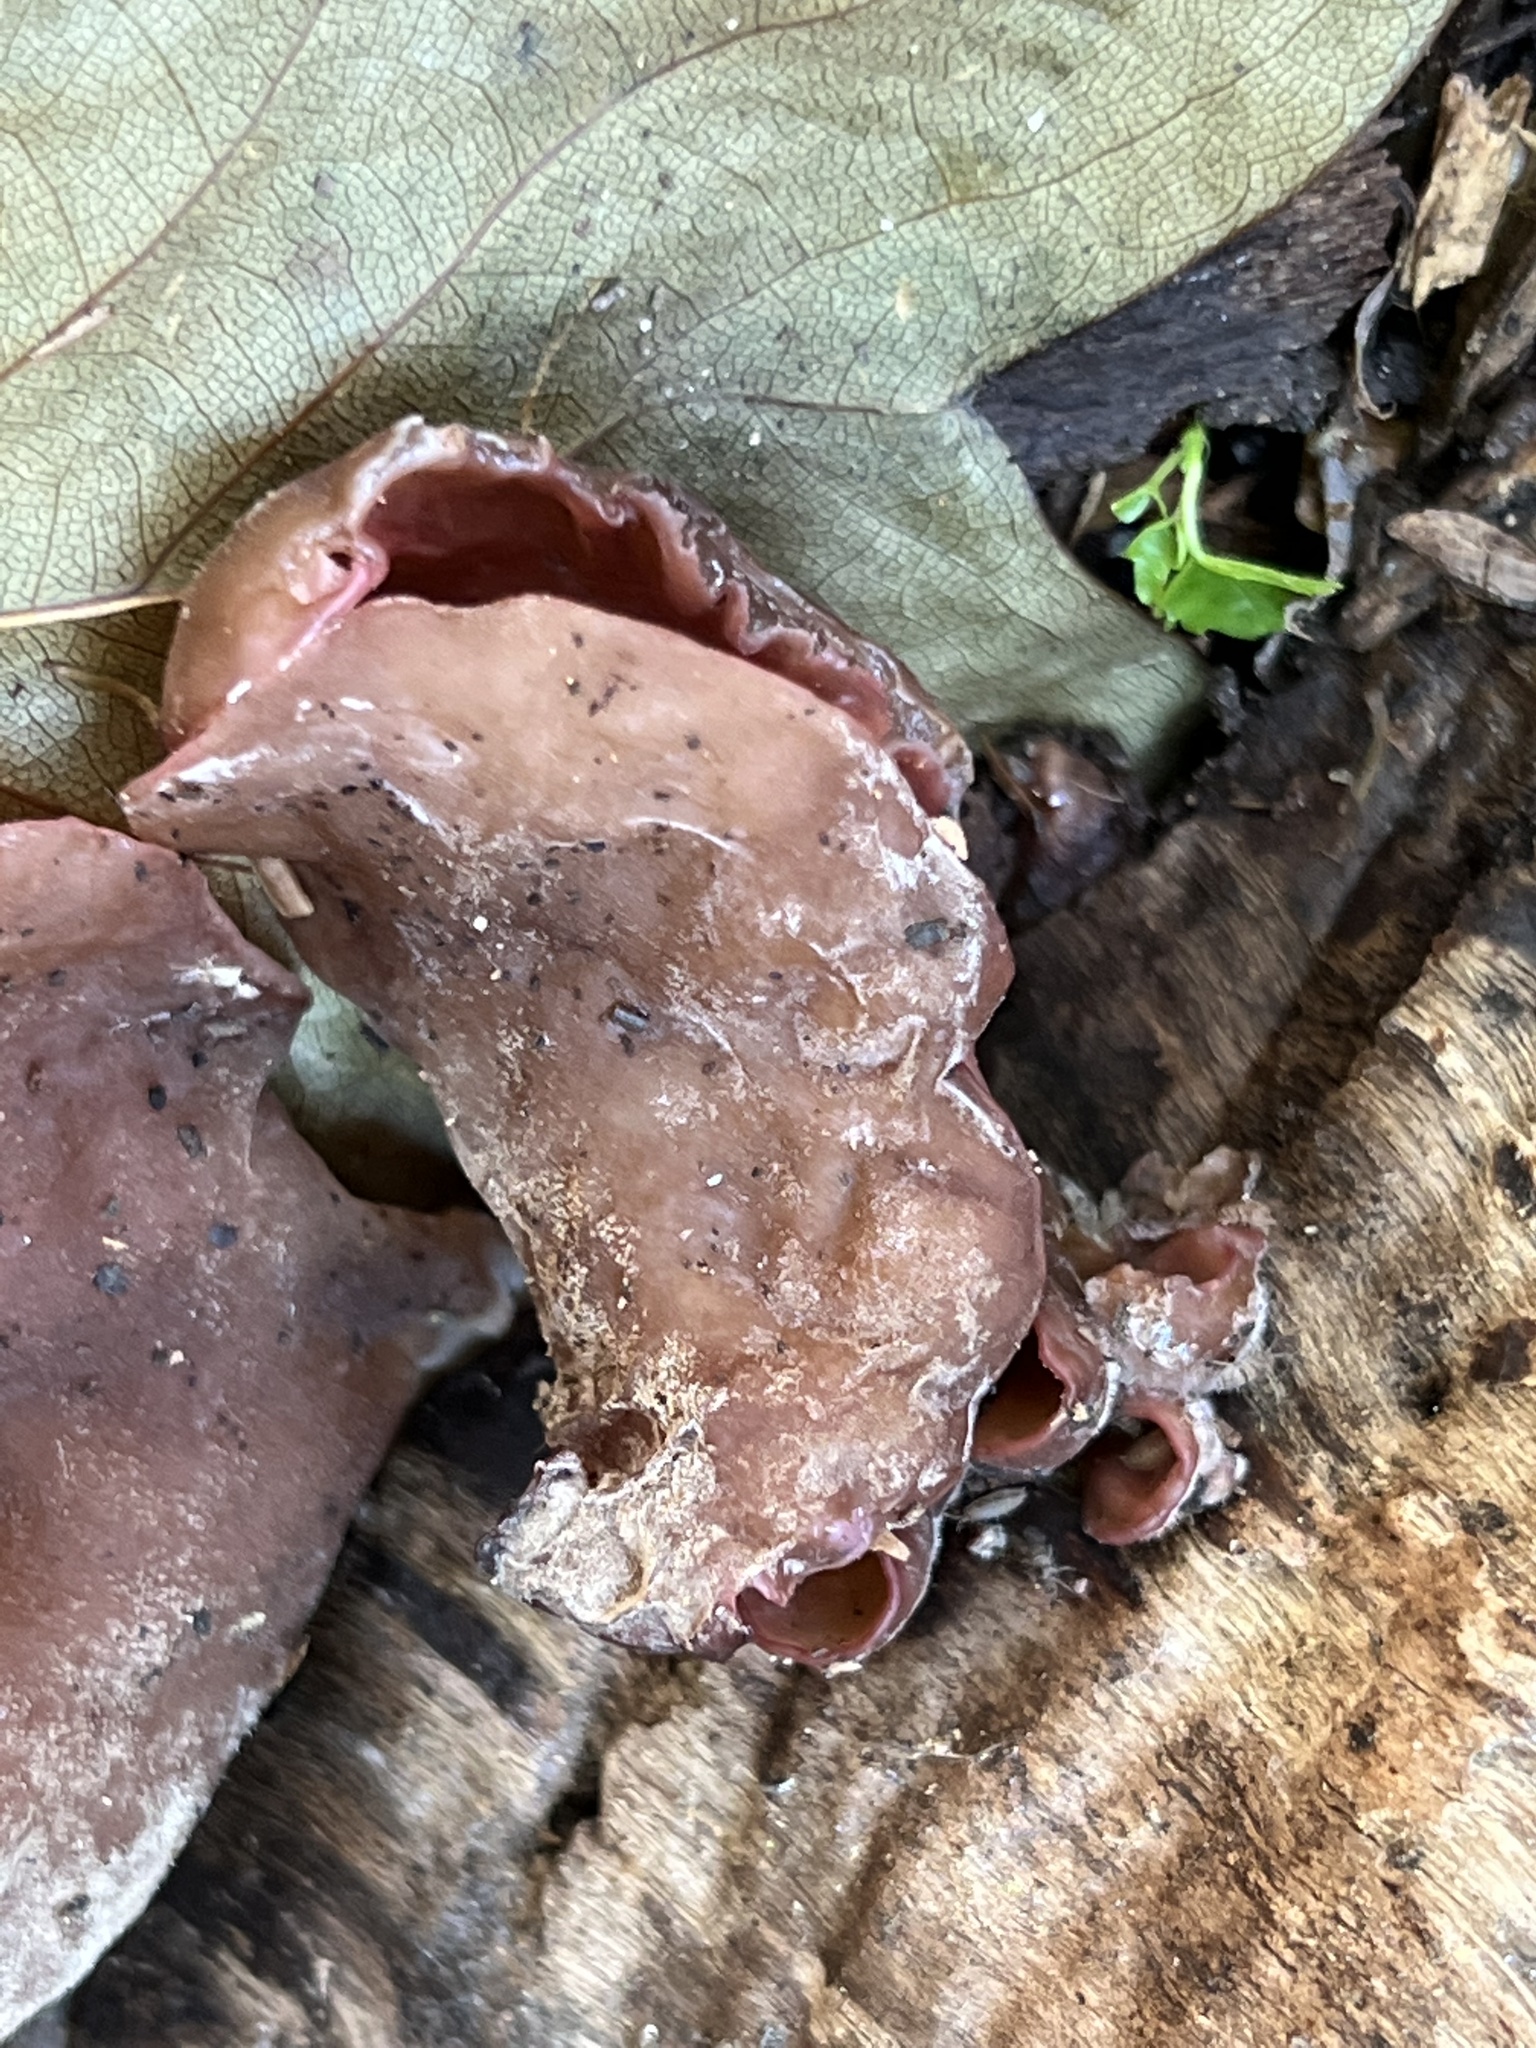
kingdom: Fungi
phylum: Basidiomycota
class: Agaricomycetes
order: Auriculariales
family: Auriculariaceae
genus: Auricularia
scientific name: Auricularia americana
